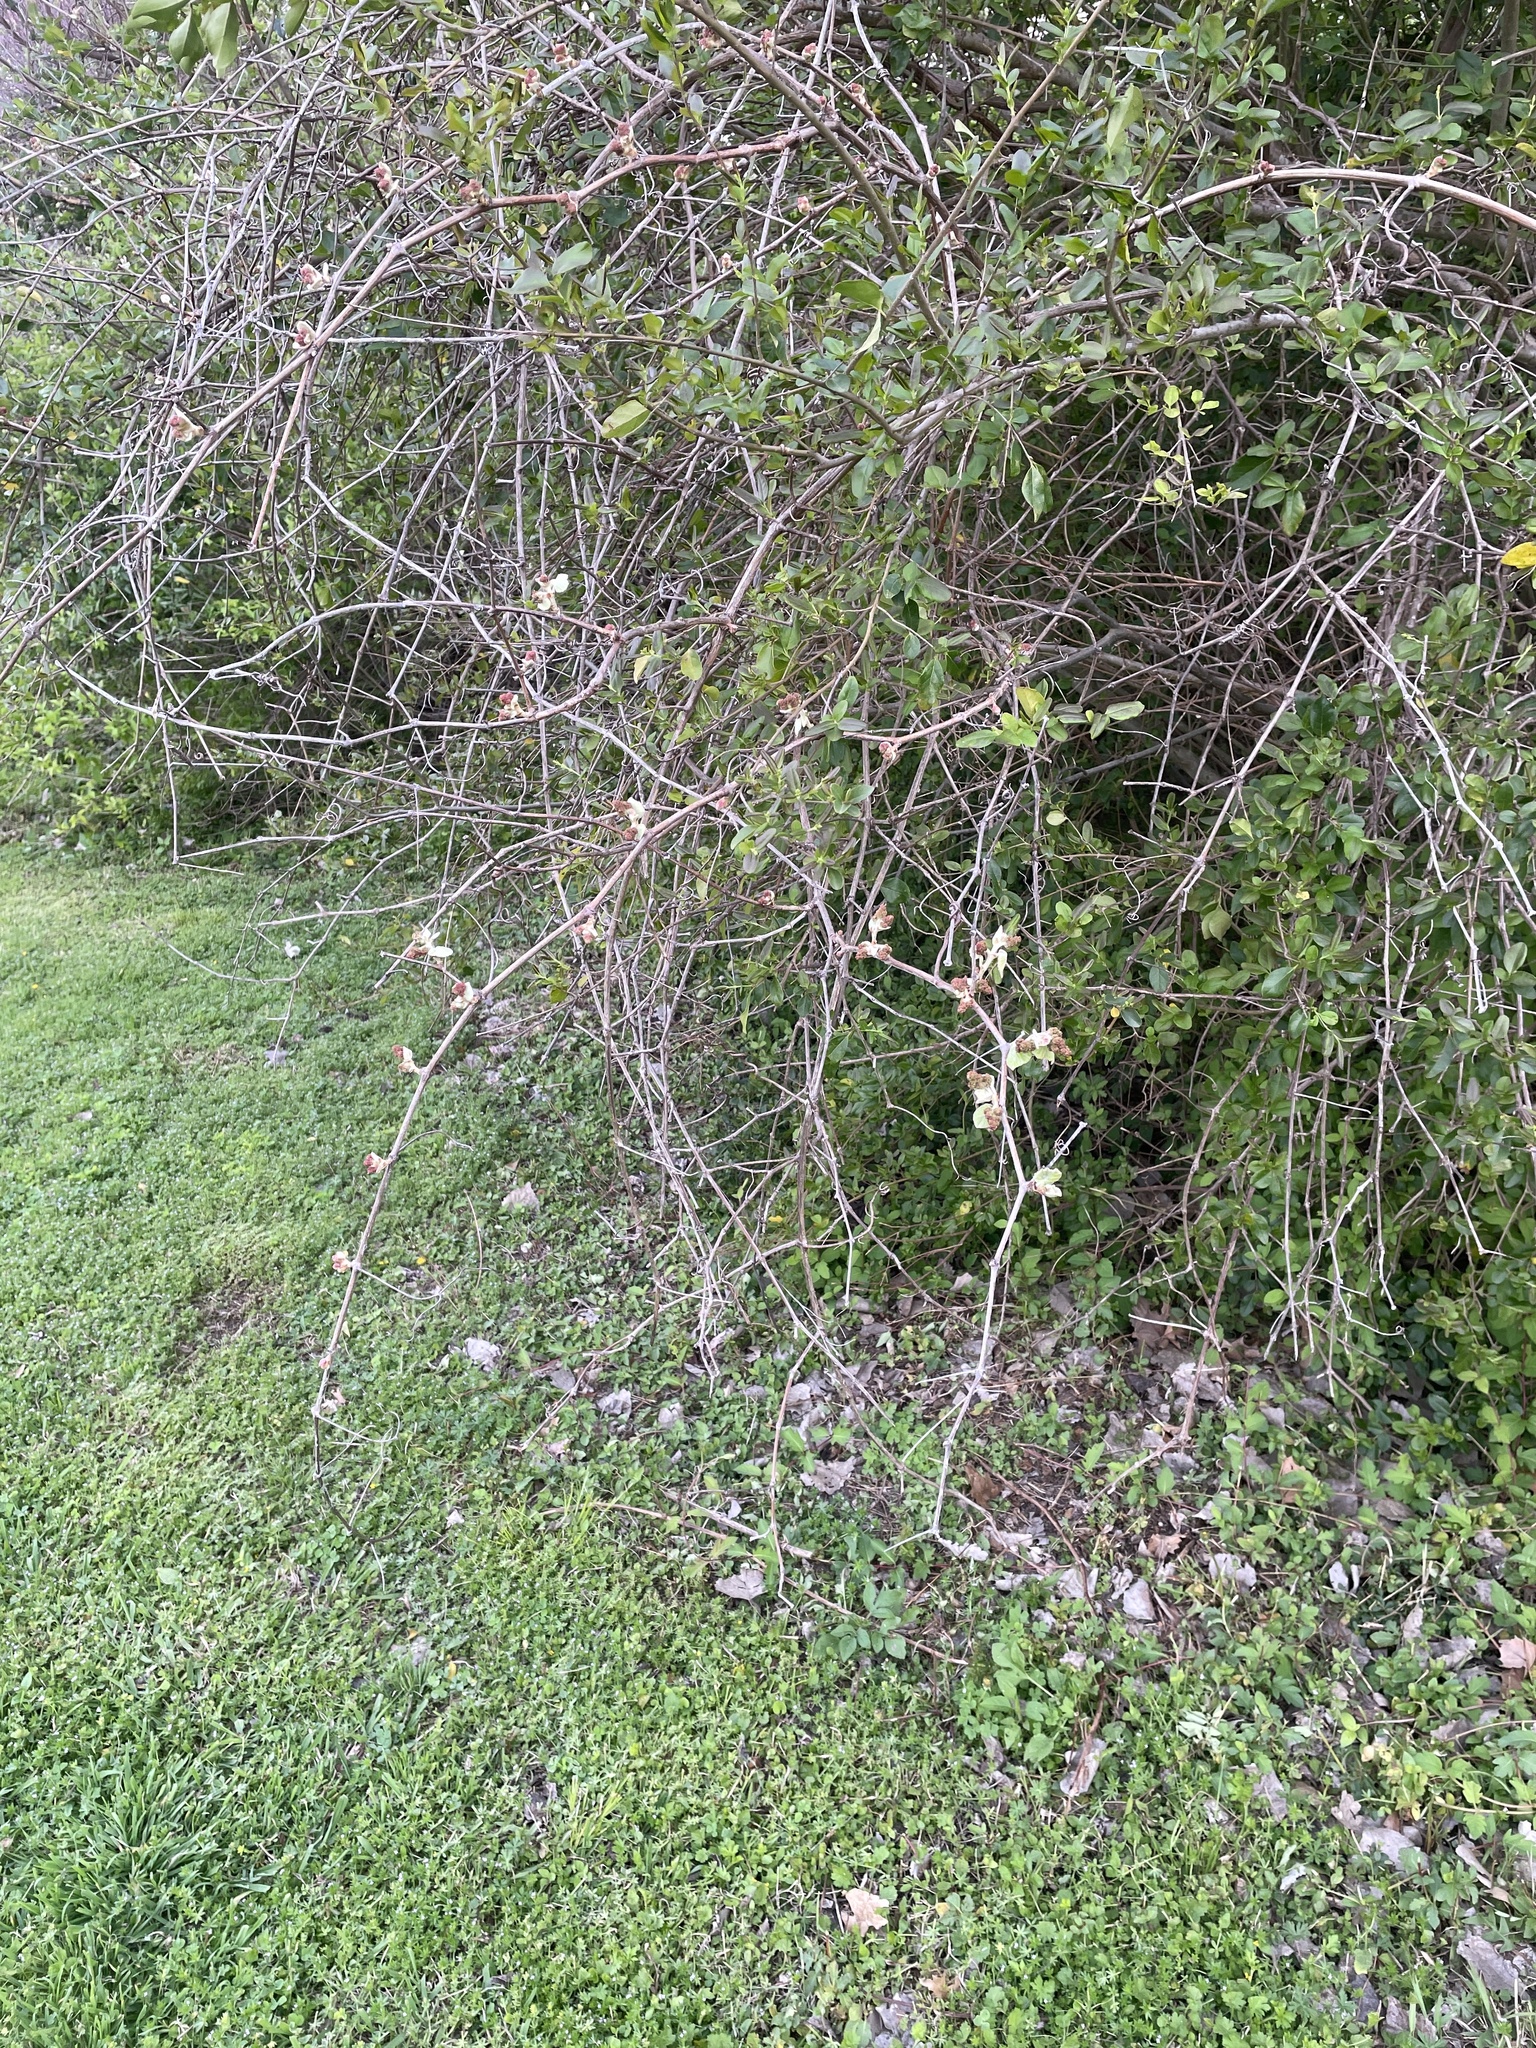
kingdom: Plantae
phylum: Tracheophyta
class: Magnoliopsida
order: Vitales
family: Vitaceae
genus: Vitis
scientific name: Vitis mustangensis
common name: Mustang grape
